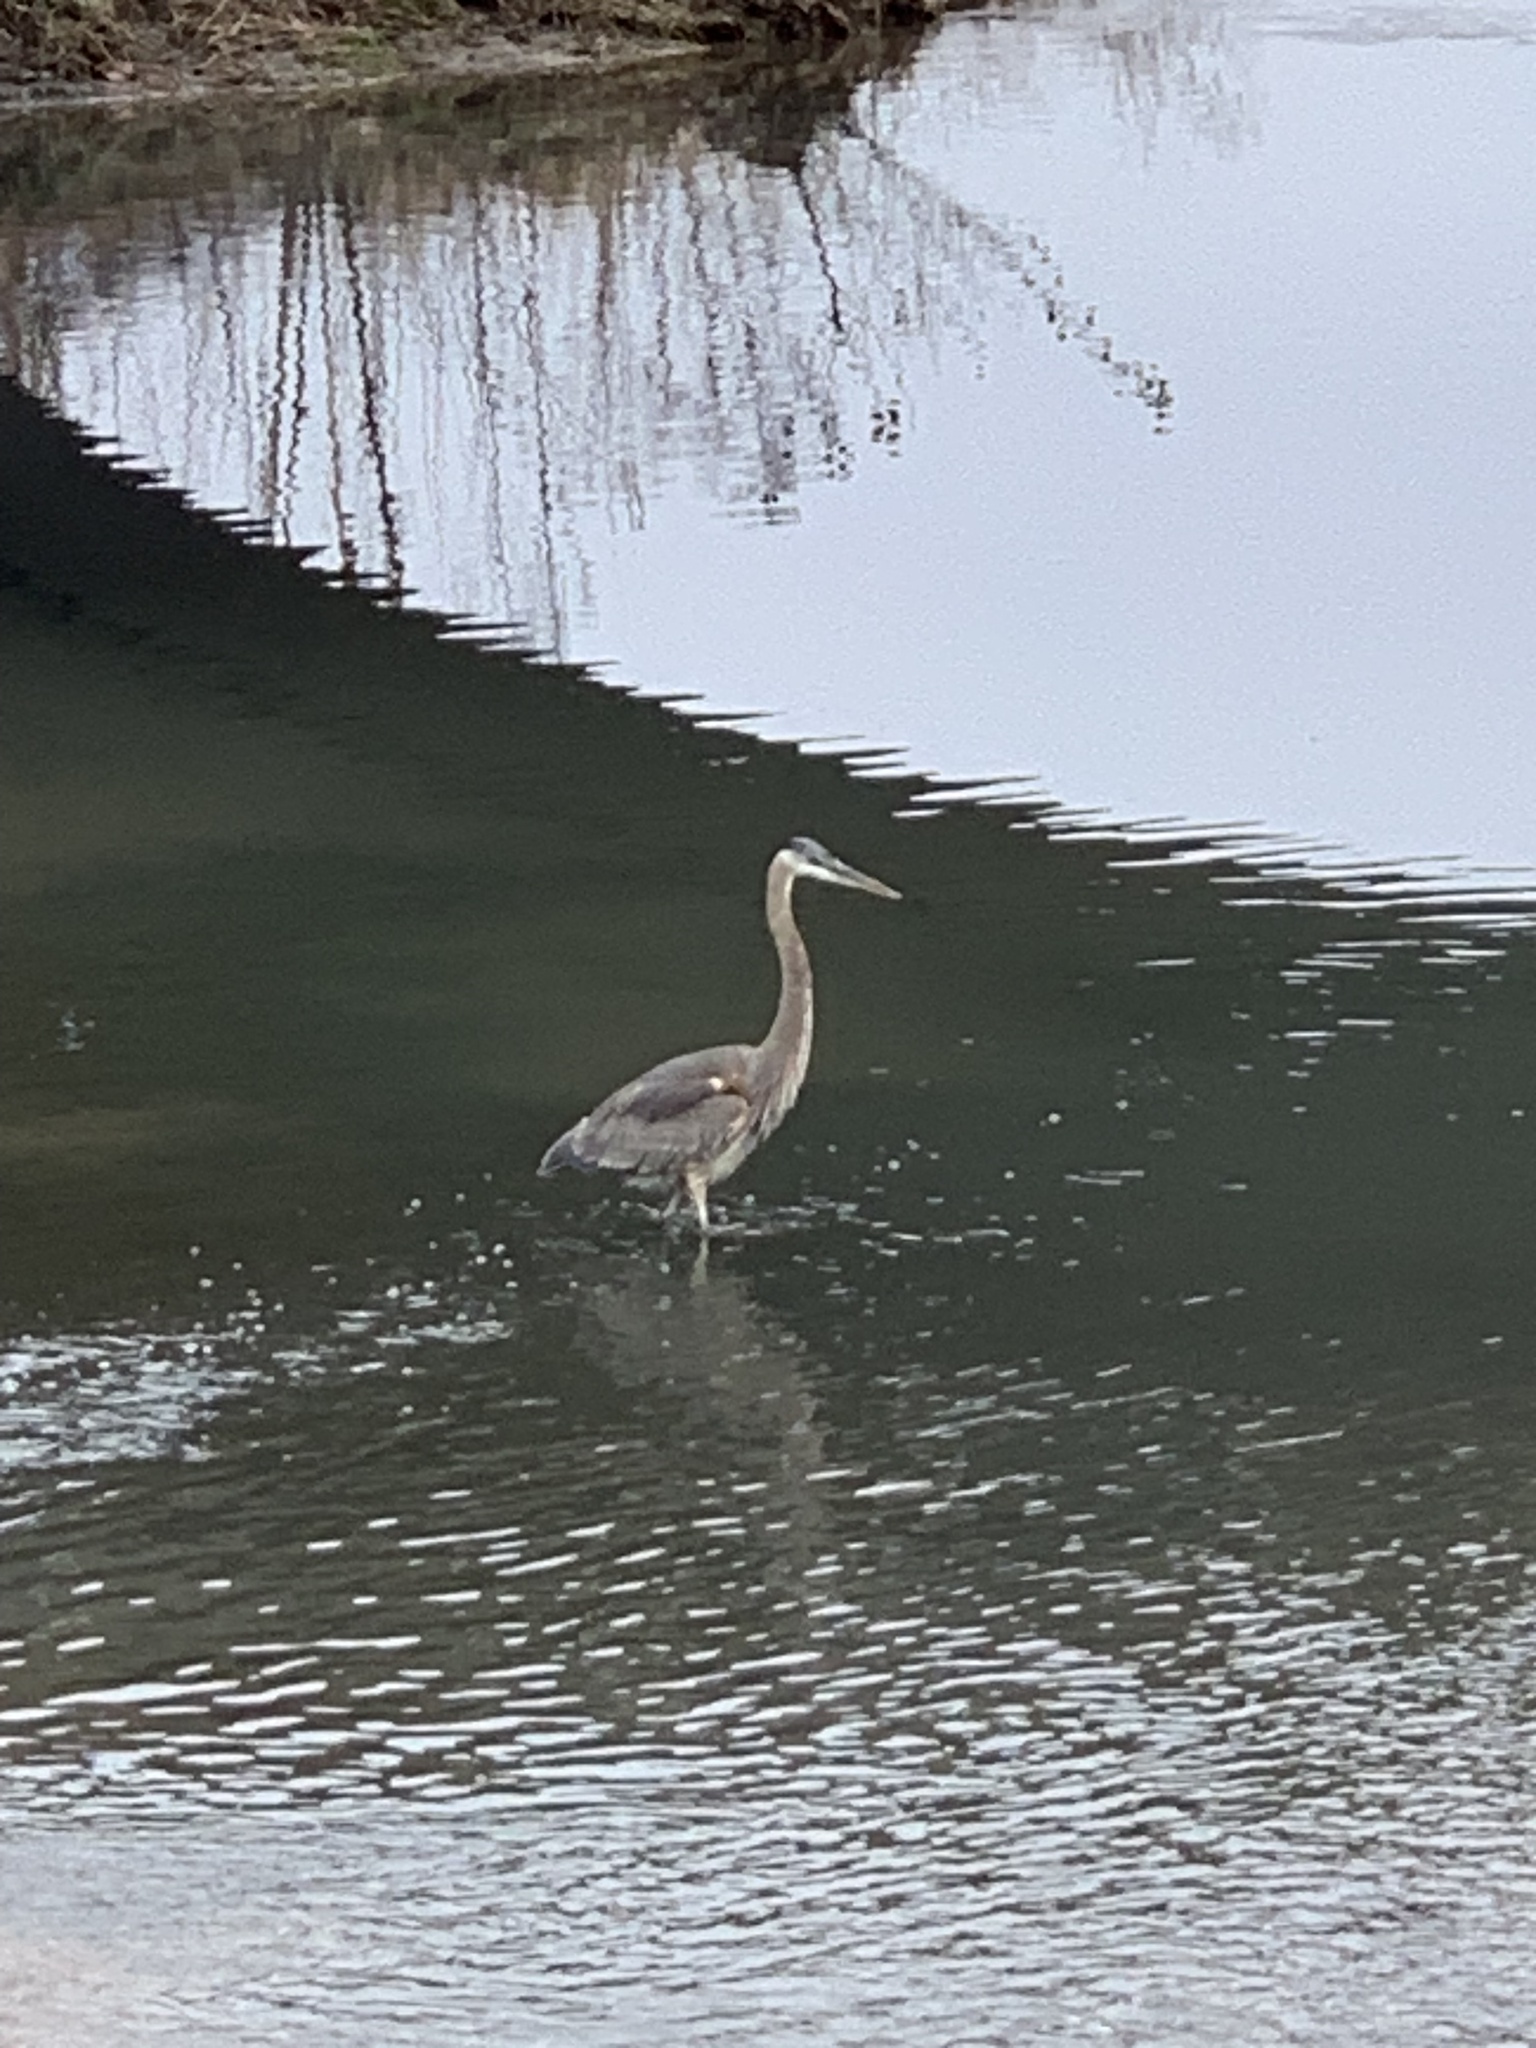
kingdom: Animalia
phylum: Chordata
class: Aves
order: Pelecaniformes
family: Ardeidae
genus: Ardea
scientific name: Ardea herodias
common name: Great blue heron
